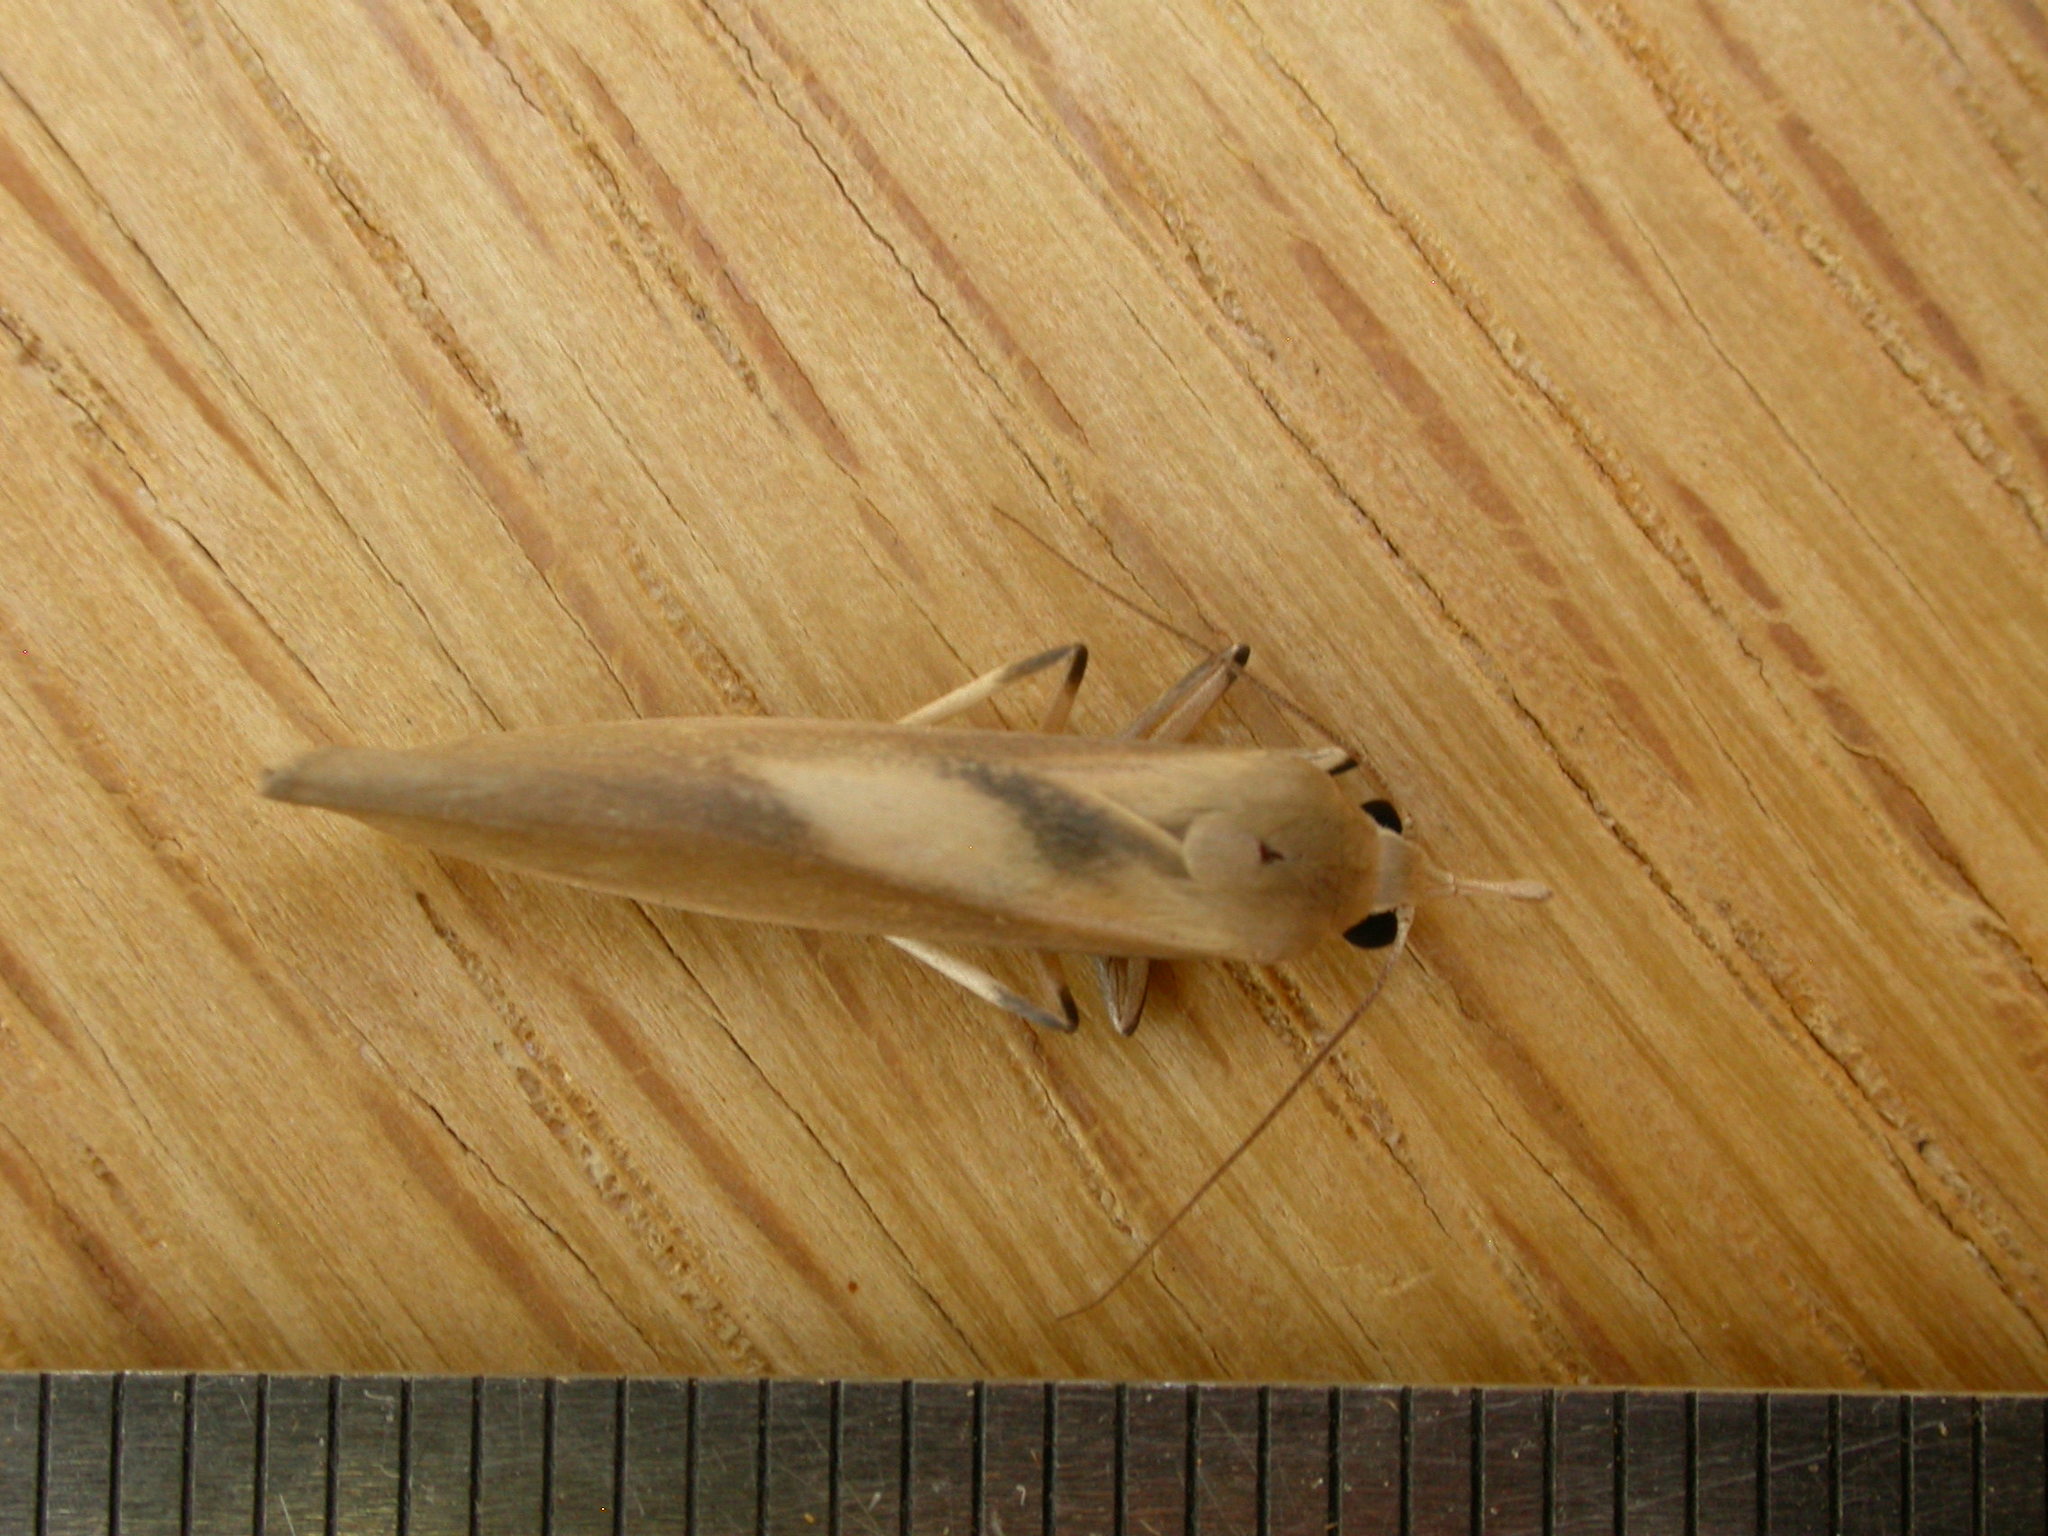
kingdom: Animalia
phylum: Arthropoda
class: Insecta
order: Lepidoptera
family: Erebidae
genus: Calamidia
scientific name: Calamidia hirta
